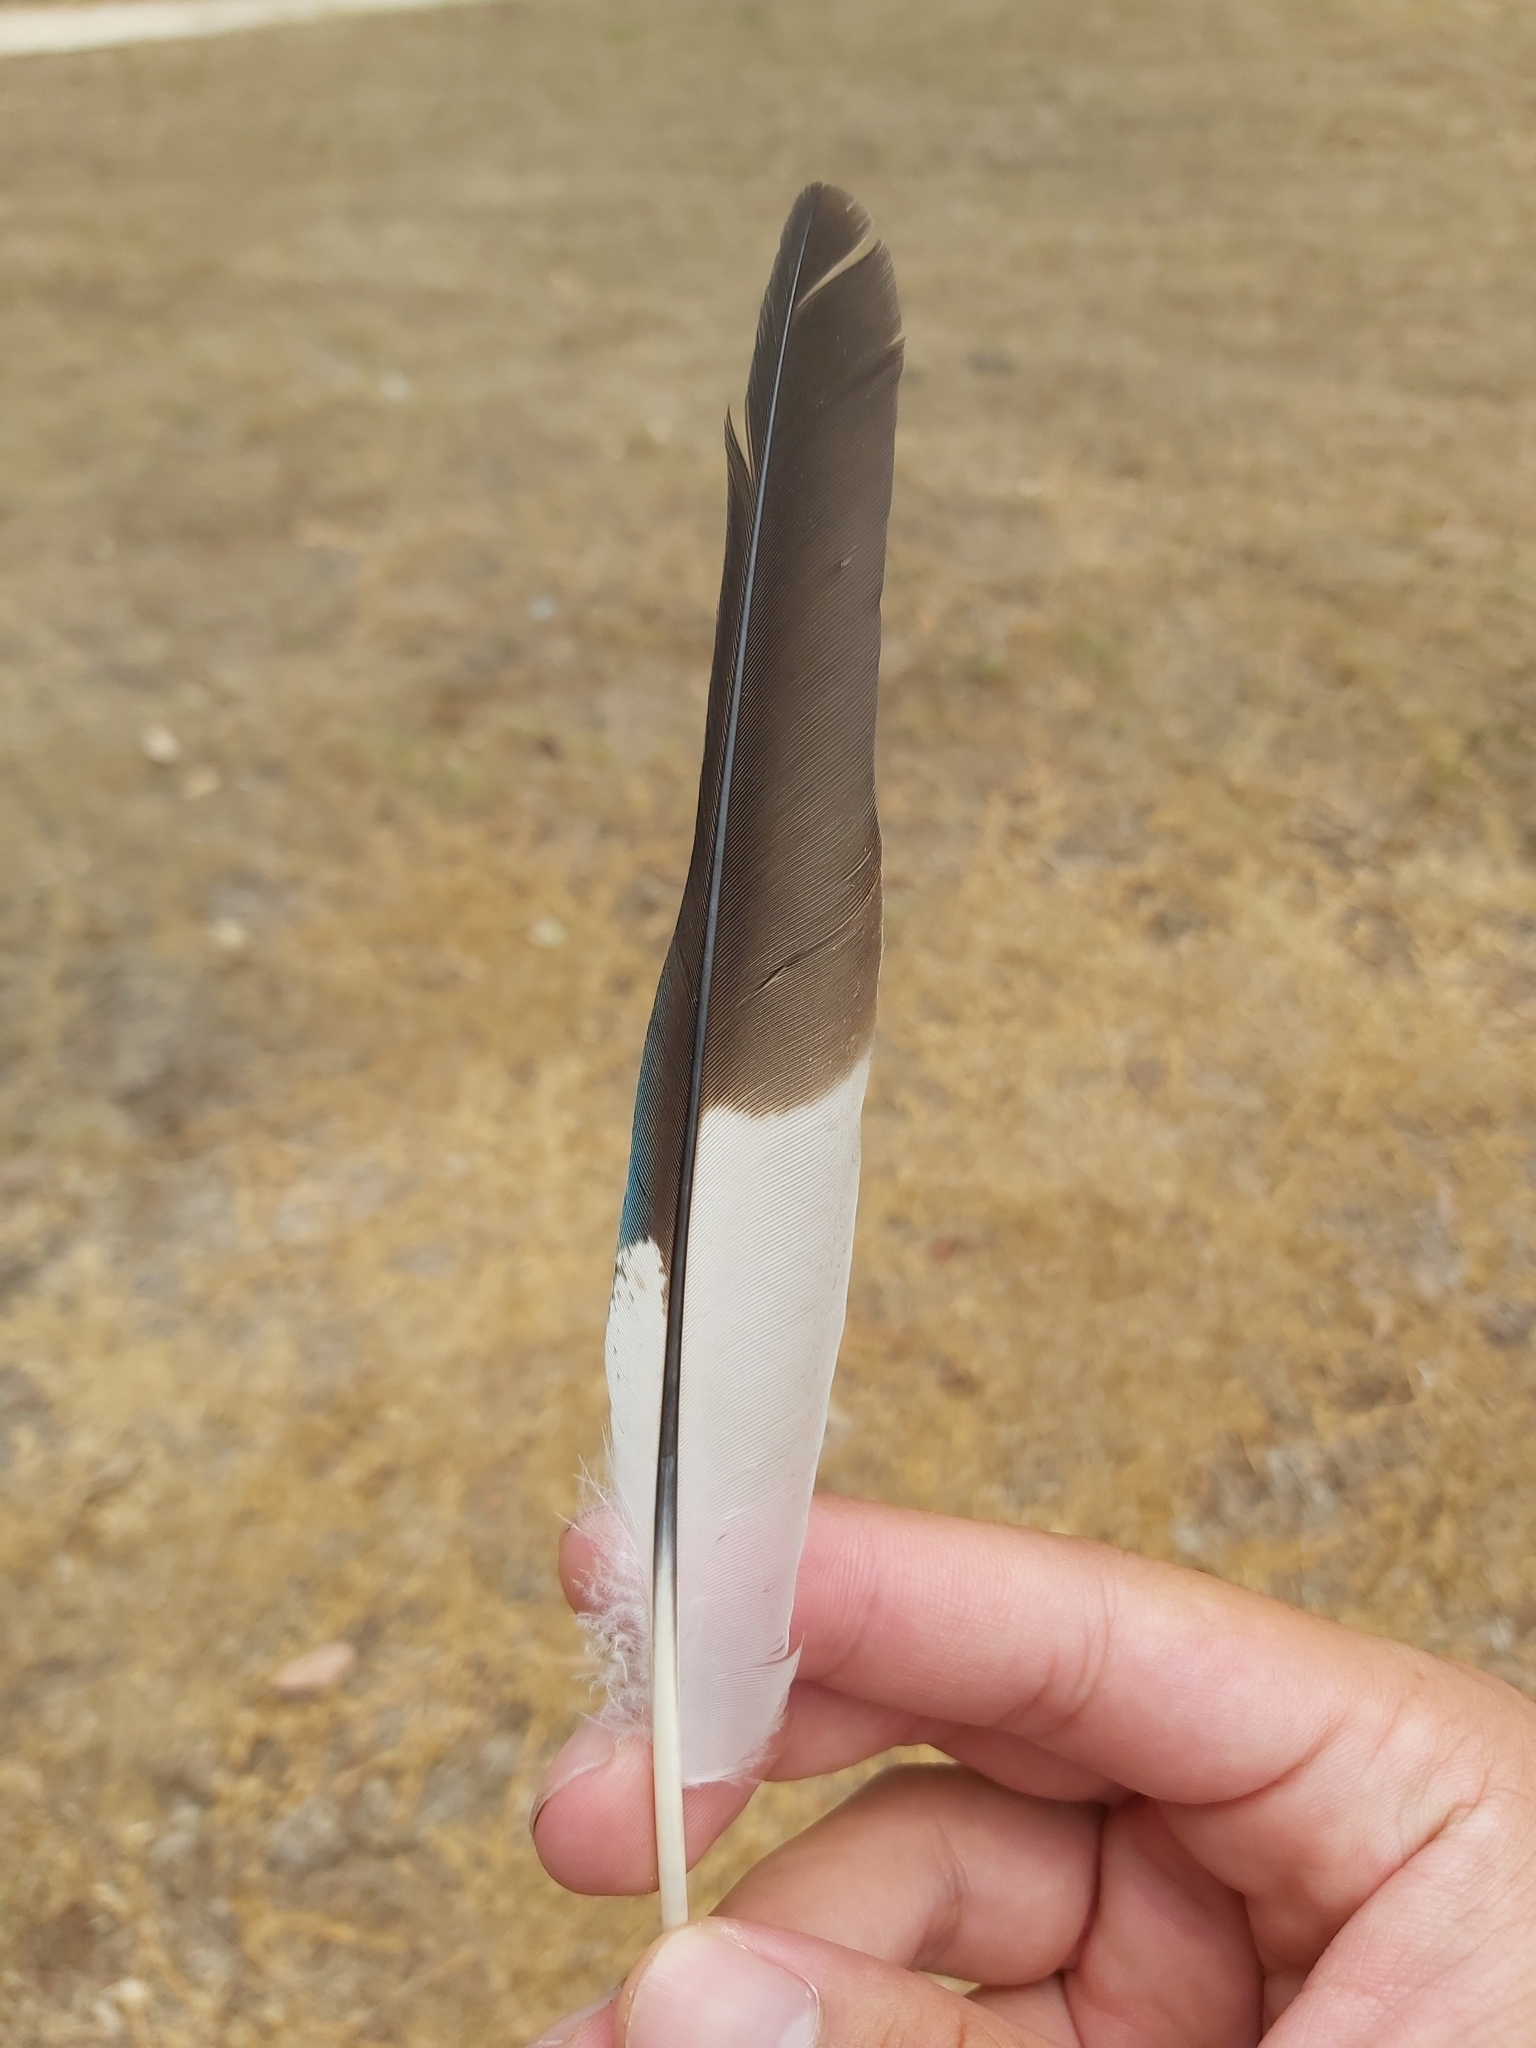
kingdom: Animalia
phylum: Chordata
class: Aves
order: Coraciiformes
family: Alcedinidae
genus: Dacelo
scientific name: Dacelo novaeguineae
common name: Laughing kookaburra
